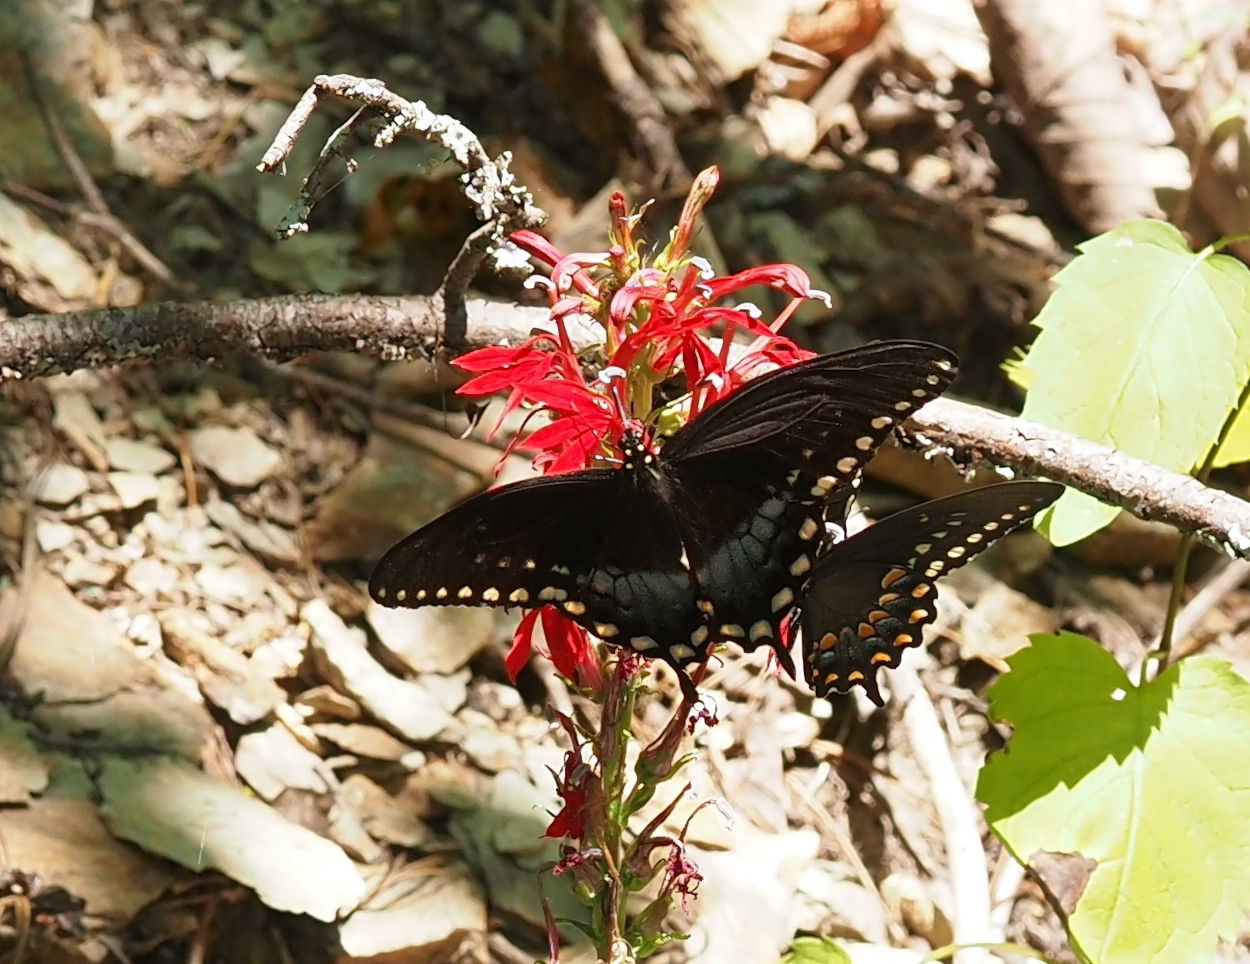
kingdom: Animalia
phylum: Arthropoda
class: Insecta
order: Lepidoptera
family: Papilionidae
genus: Papilio
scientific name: Papilio troilus
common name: Spicebush swallowtail
